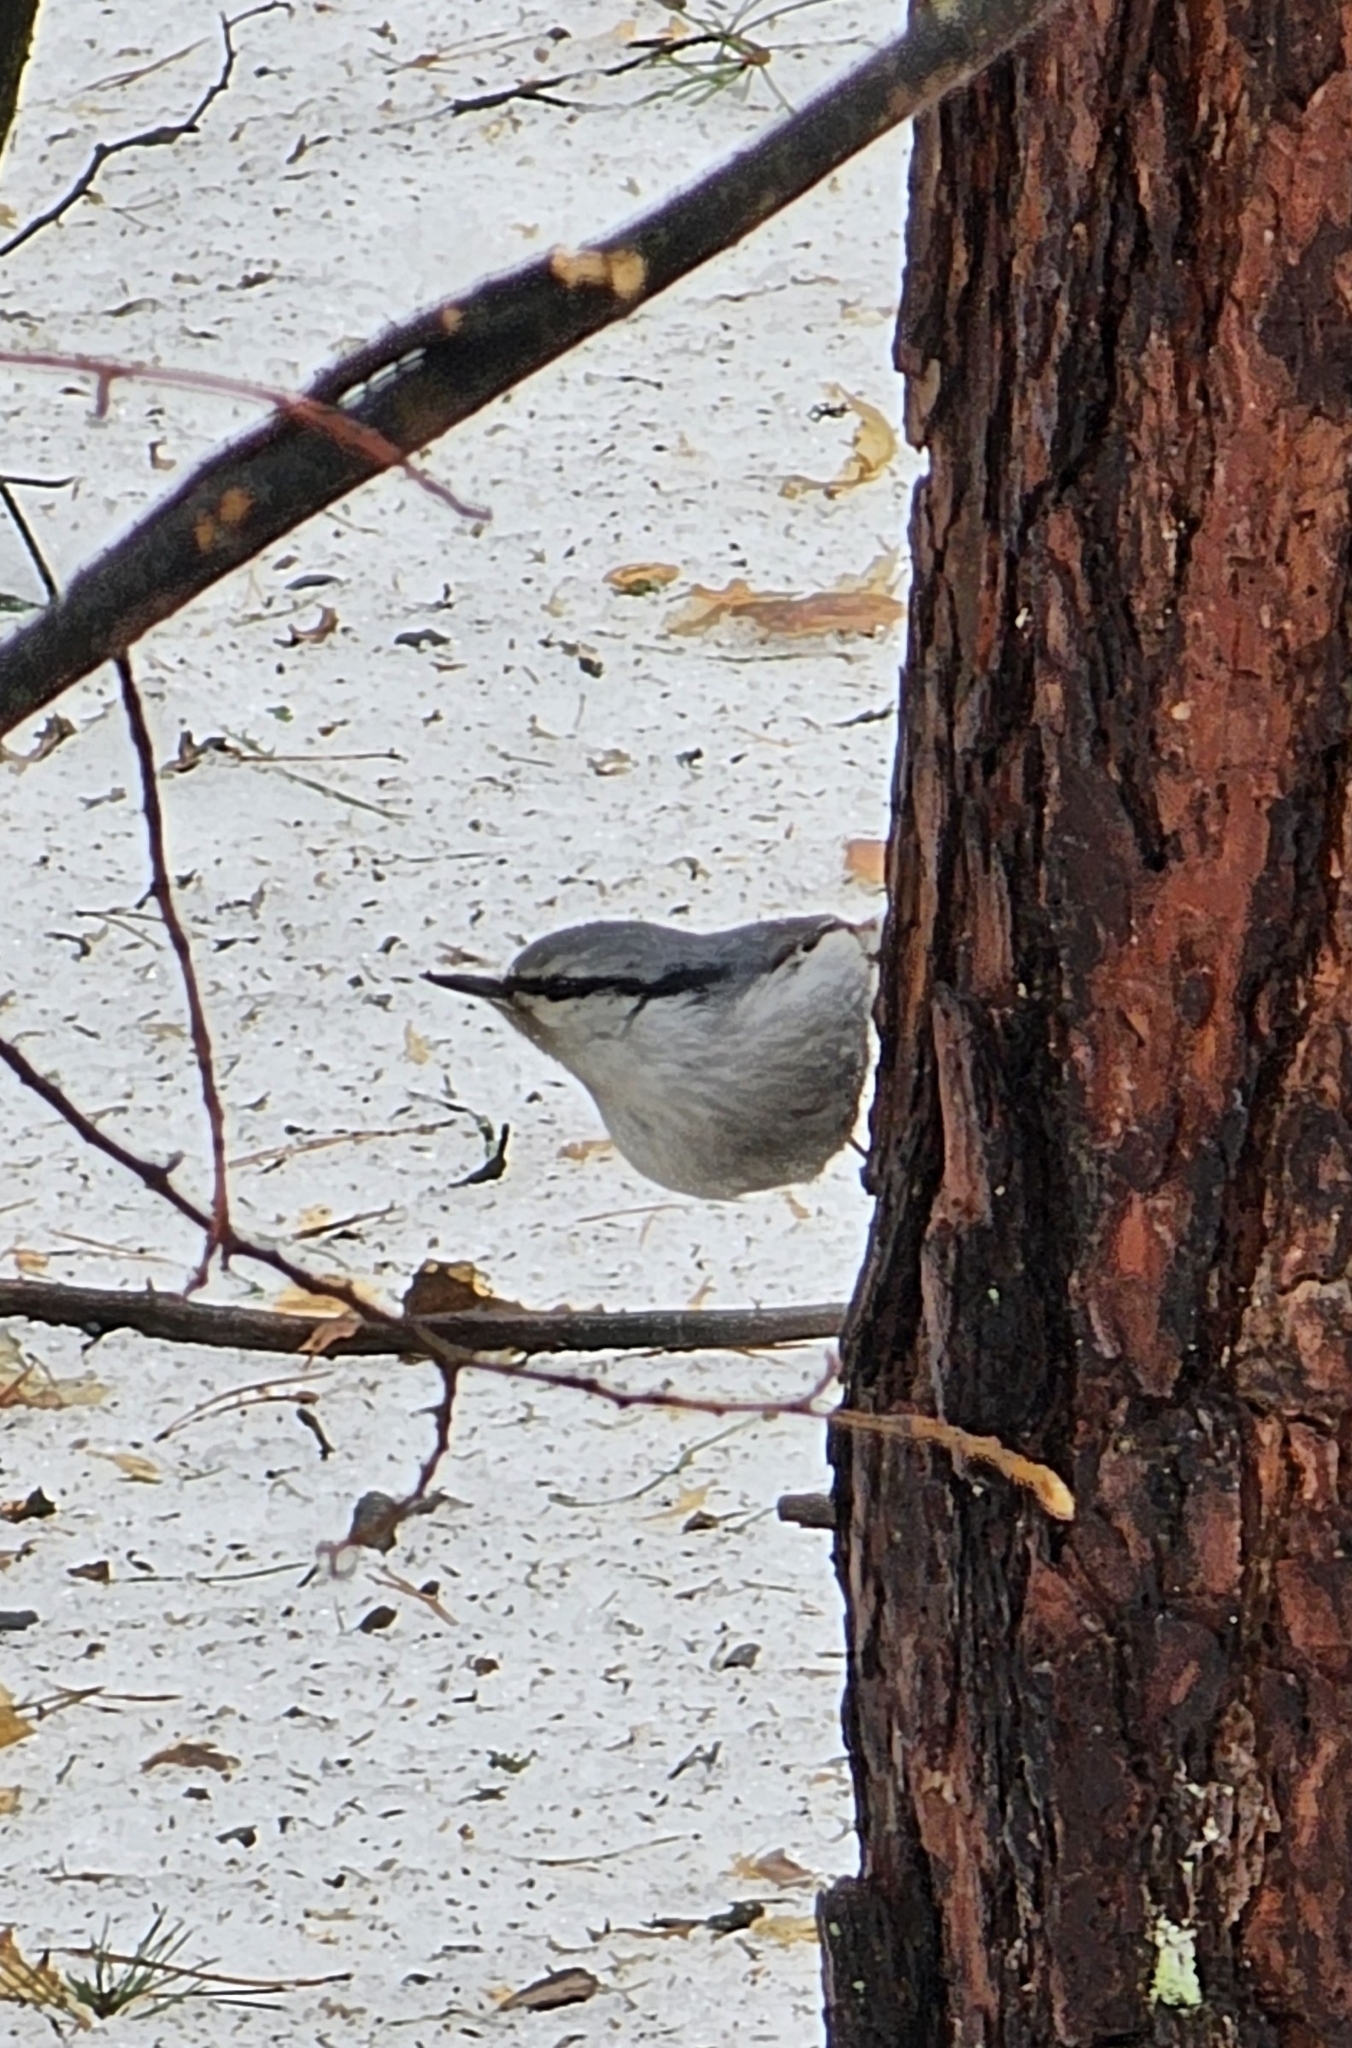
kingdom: Animalia
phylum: Chordata
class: Aves
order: Passeriformes
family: Sittidae
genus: Sitta
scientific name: Sitta europaea
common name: Eurasian nuthatch
